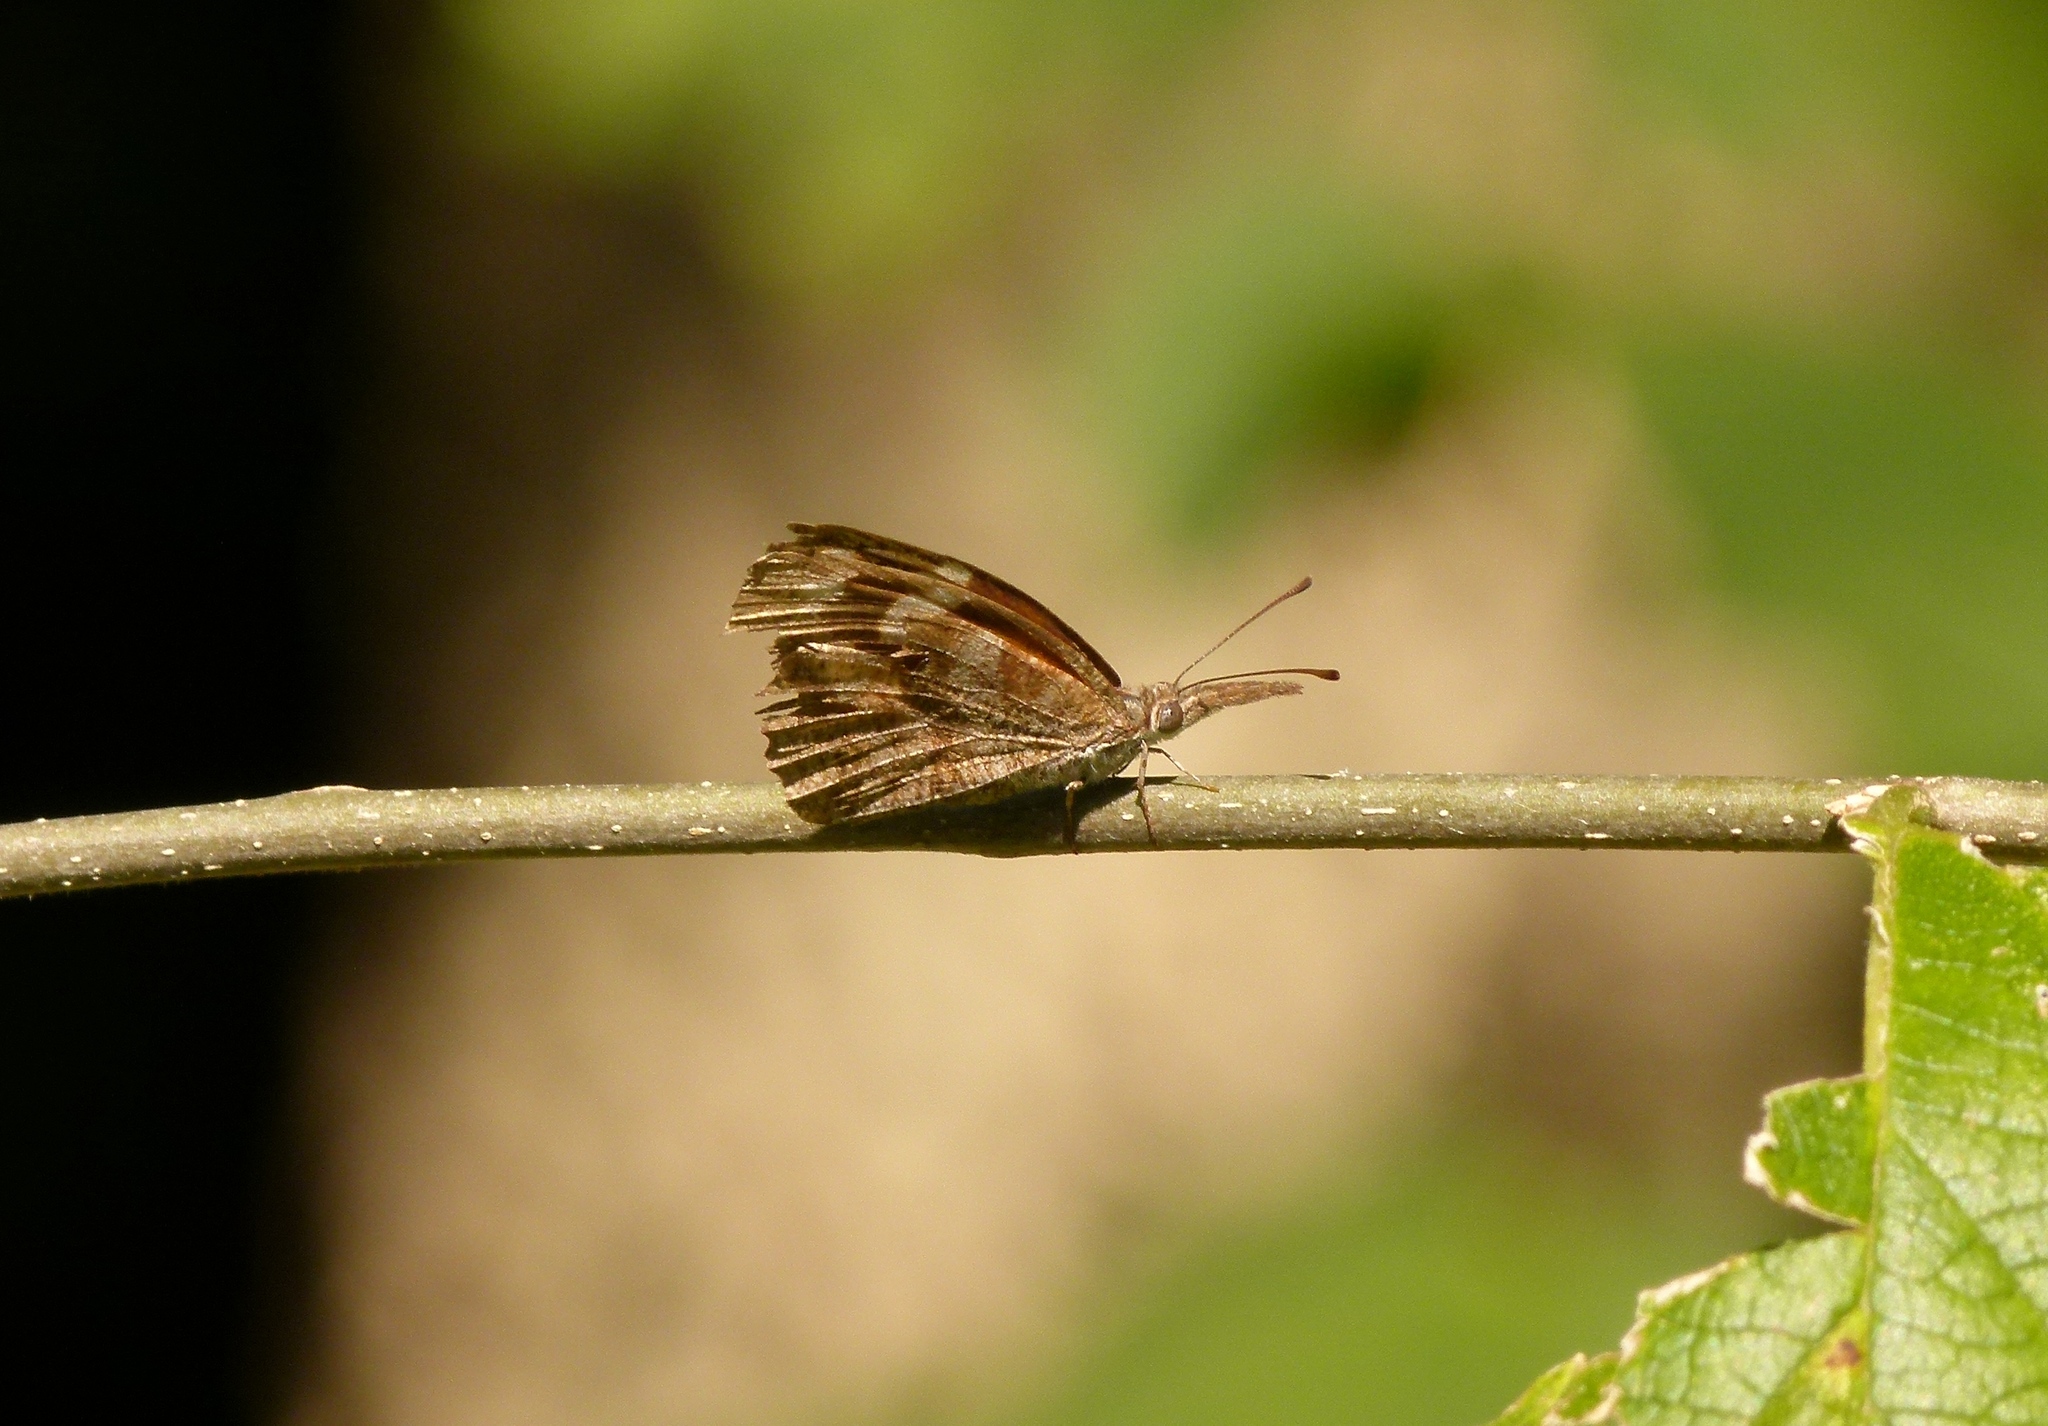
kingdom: Animalia
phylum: Arthropoda
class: Insecta
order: Lepidoptera
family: Nymphalidae
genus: Libytheana
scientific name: Libytheana carinenta
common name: American snout
